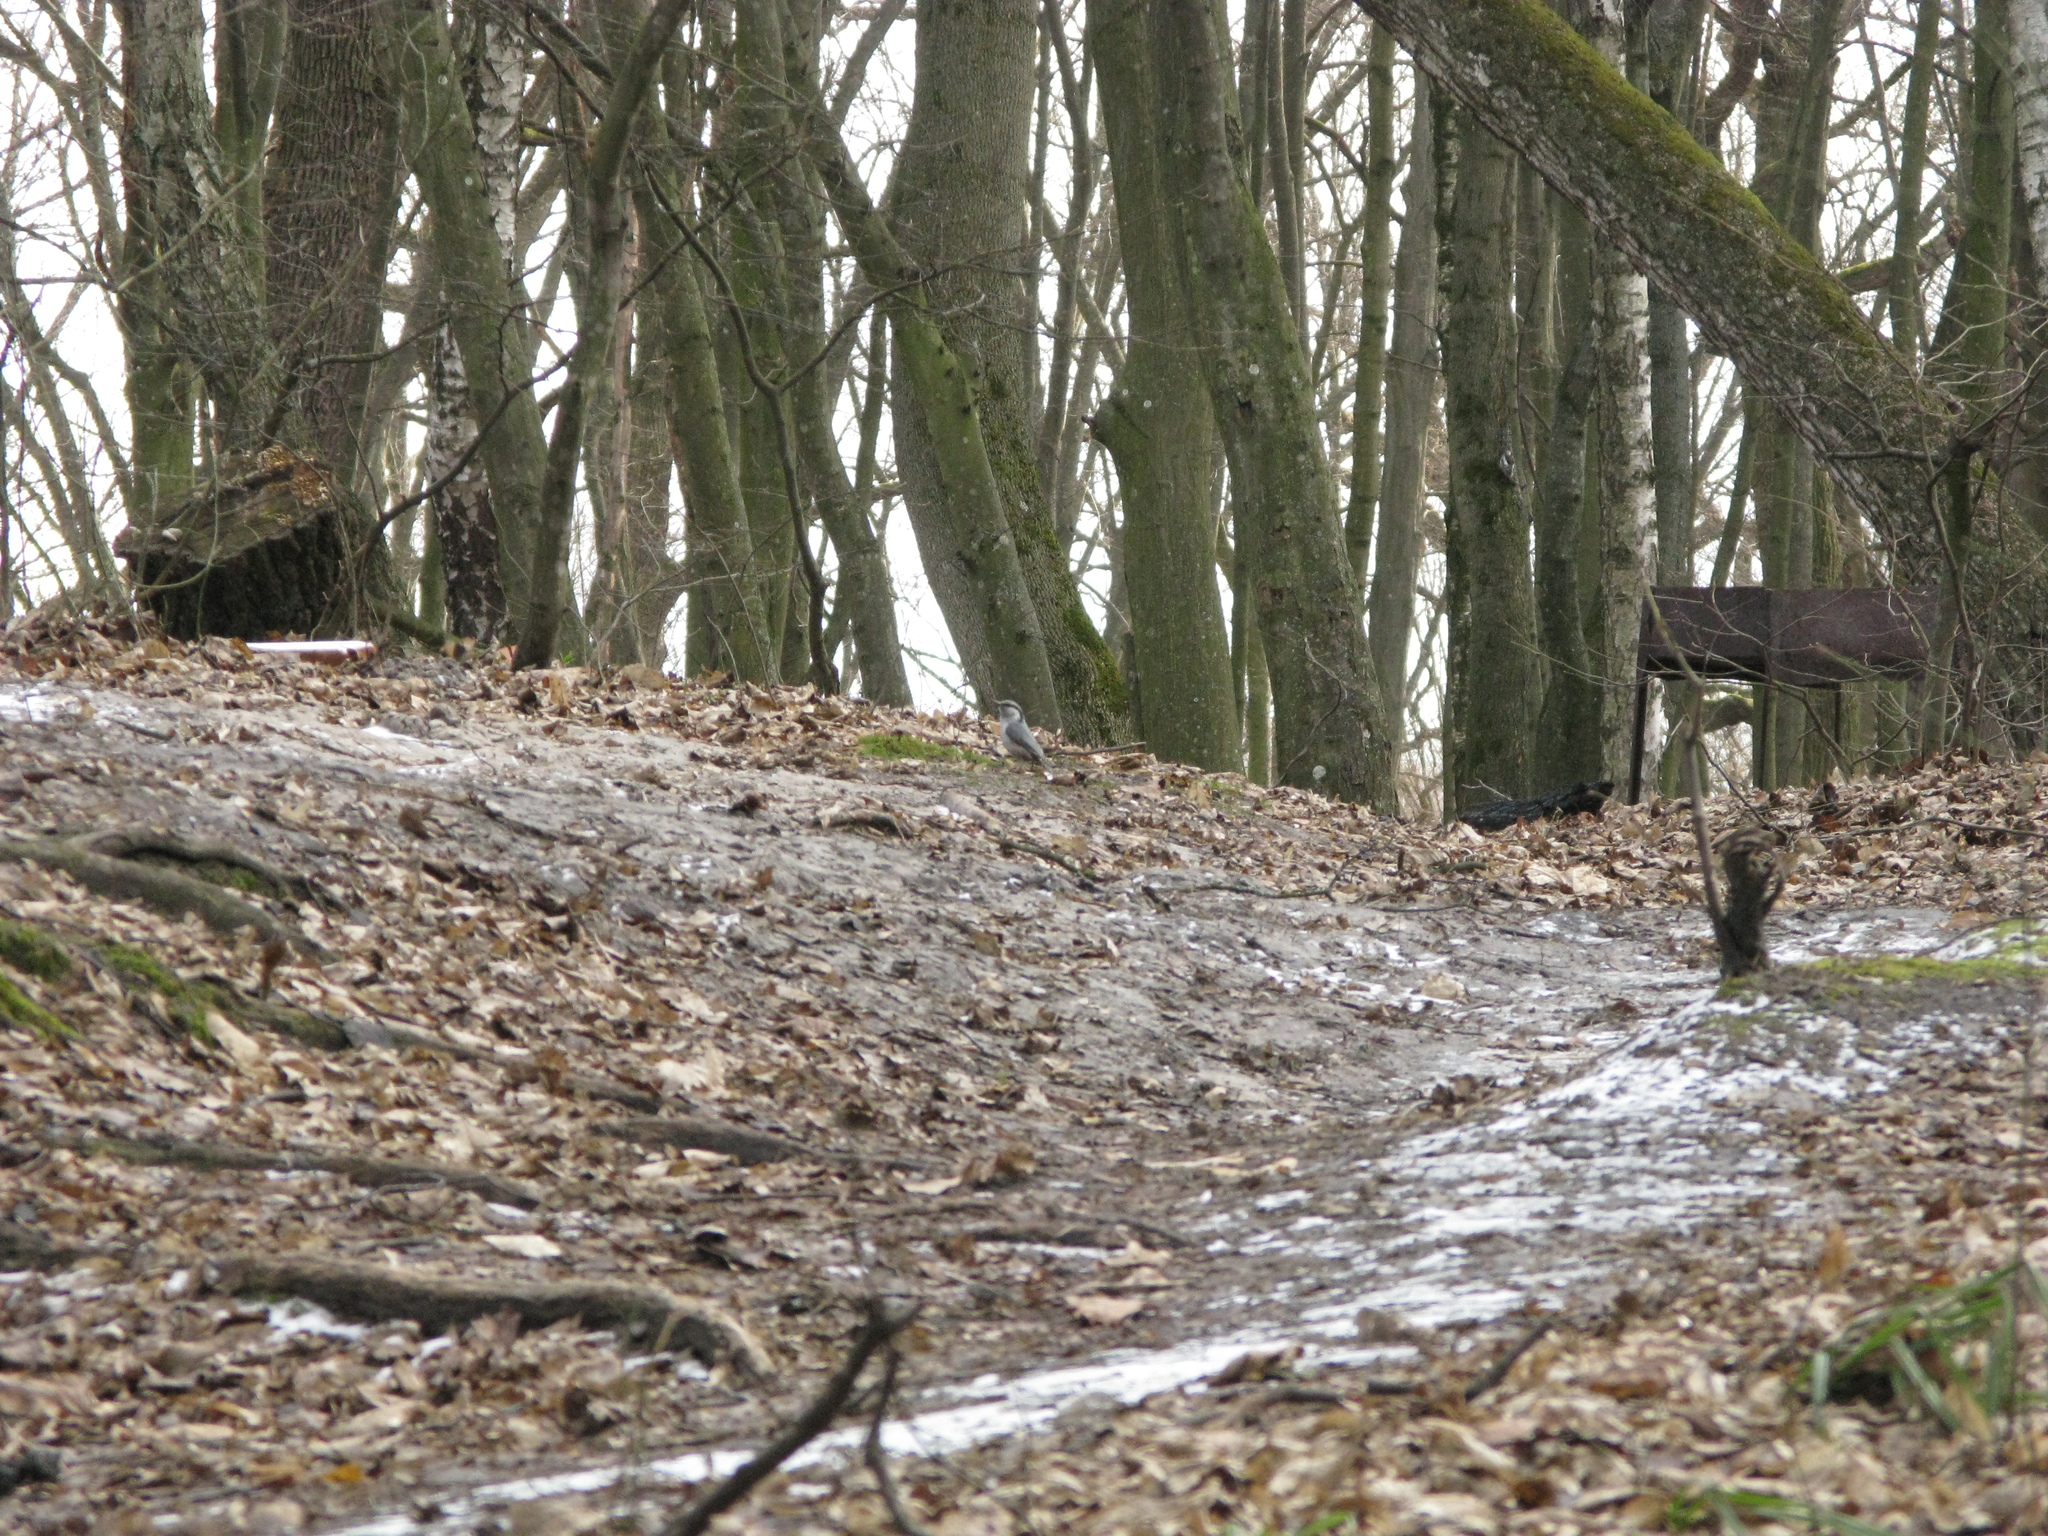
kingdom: Animalia
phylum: Chordata
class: Aves
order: Passeriformes
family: Sittidae
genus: Sitta
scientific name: Sitta europaea
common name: Eurasian nuthatch
